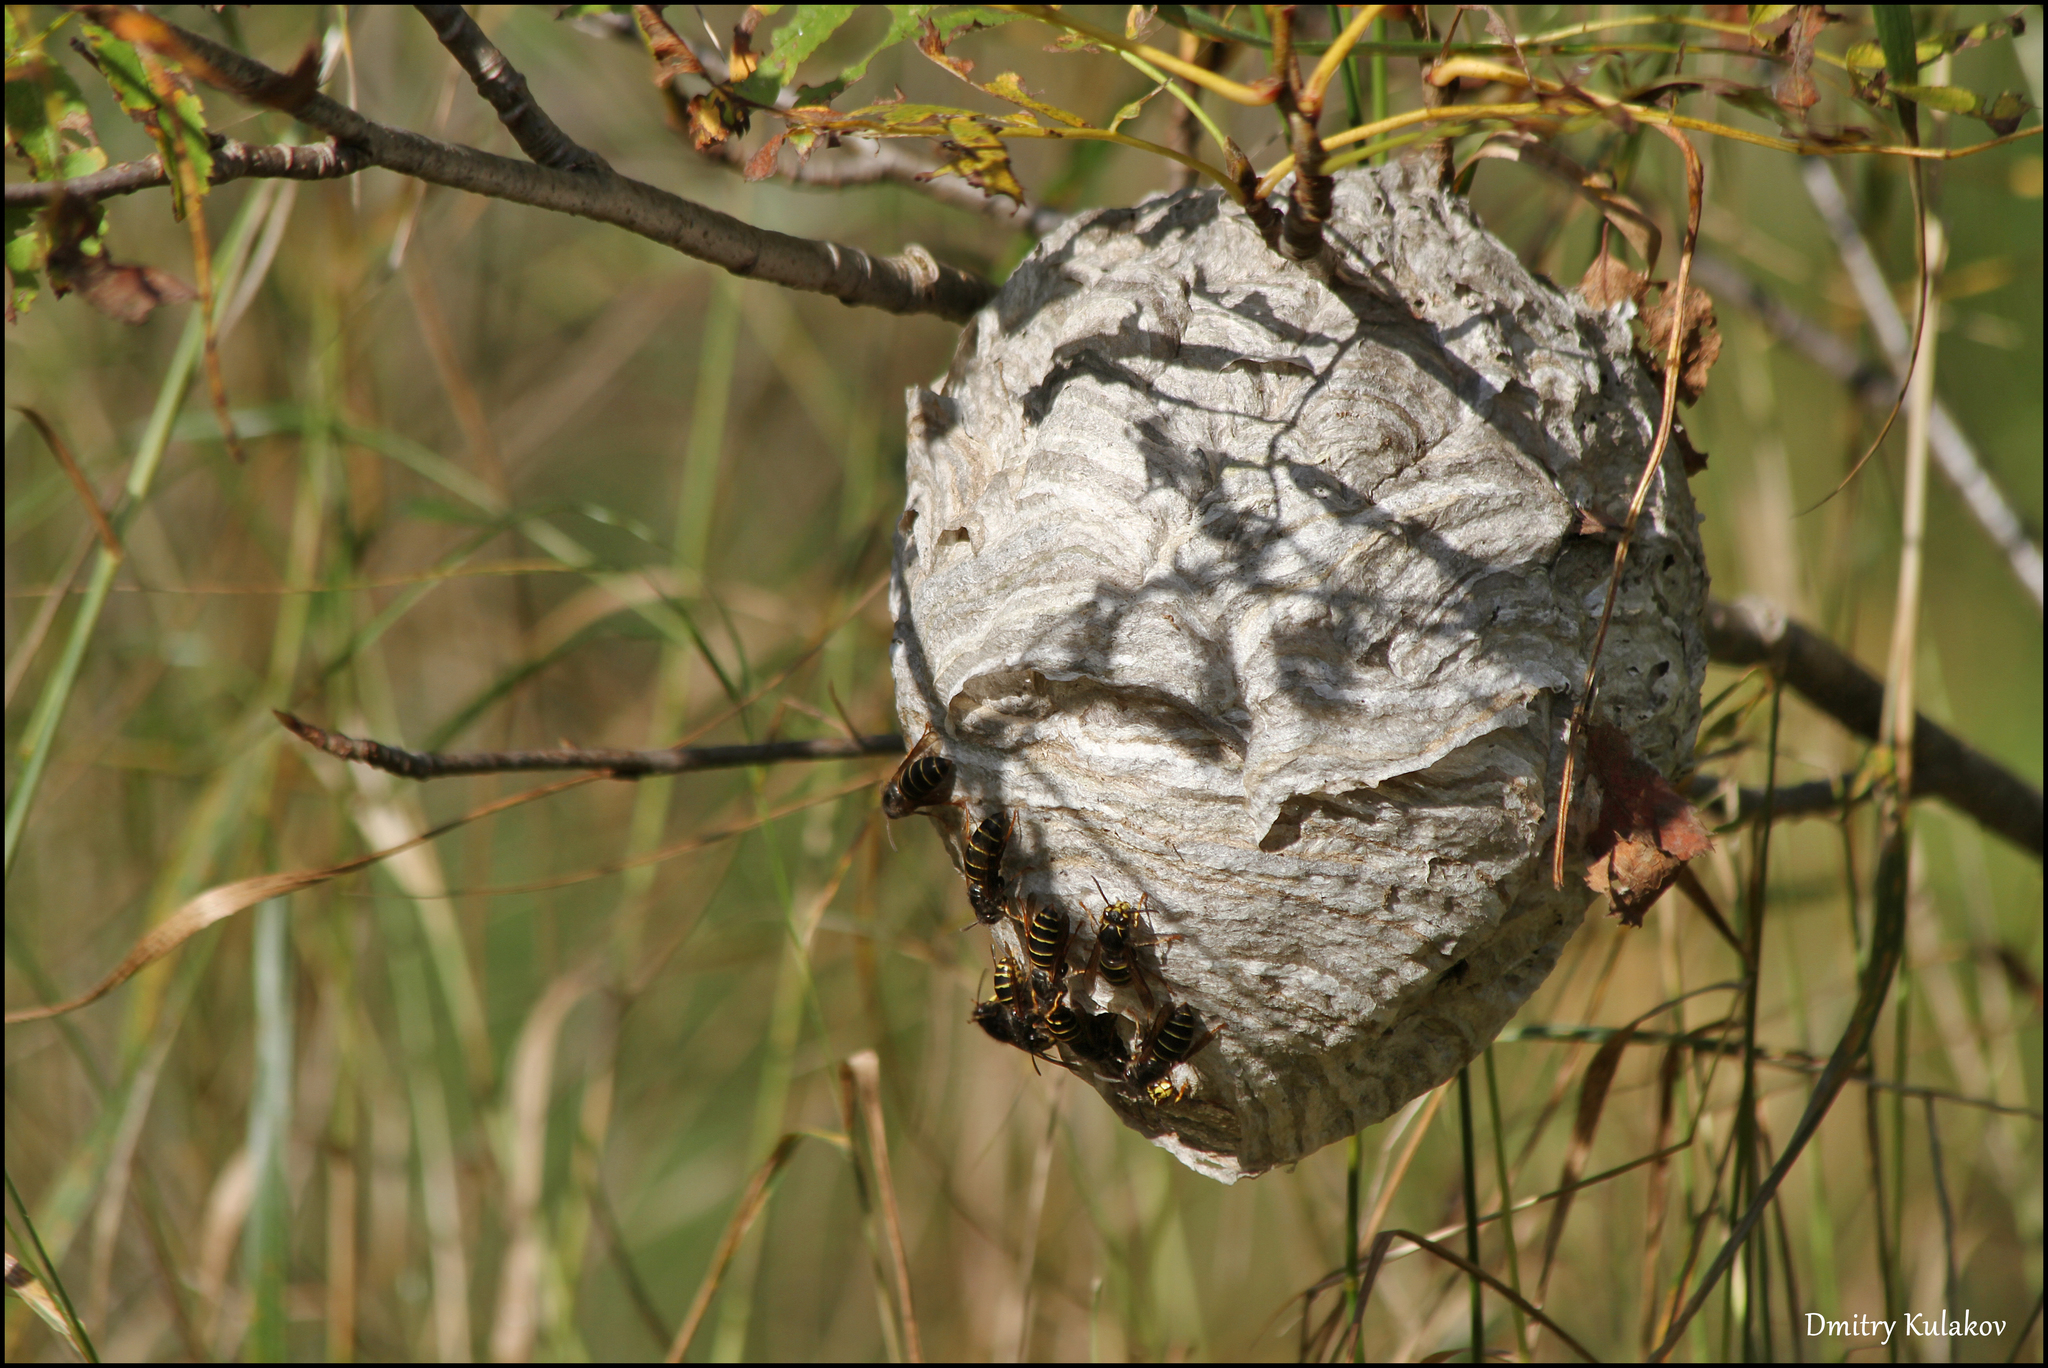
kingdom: Animalia
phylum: Arthropoda
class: Insecta
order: Hymenoptera
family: Vespidae
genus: Dolichovespula
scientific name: Dolichovespula media
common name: Median wasp
